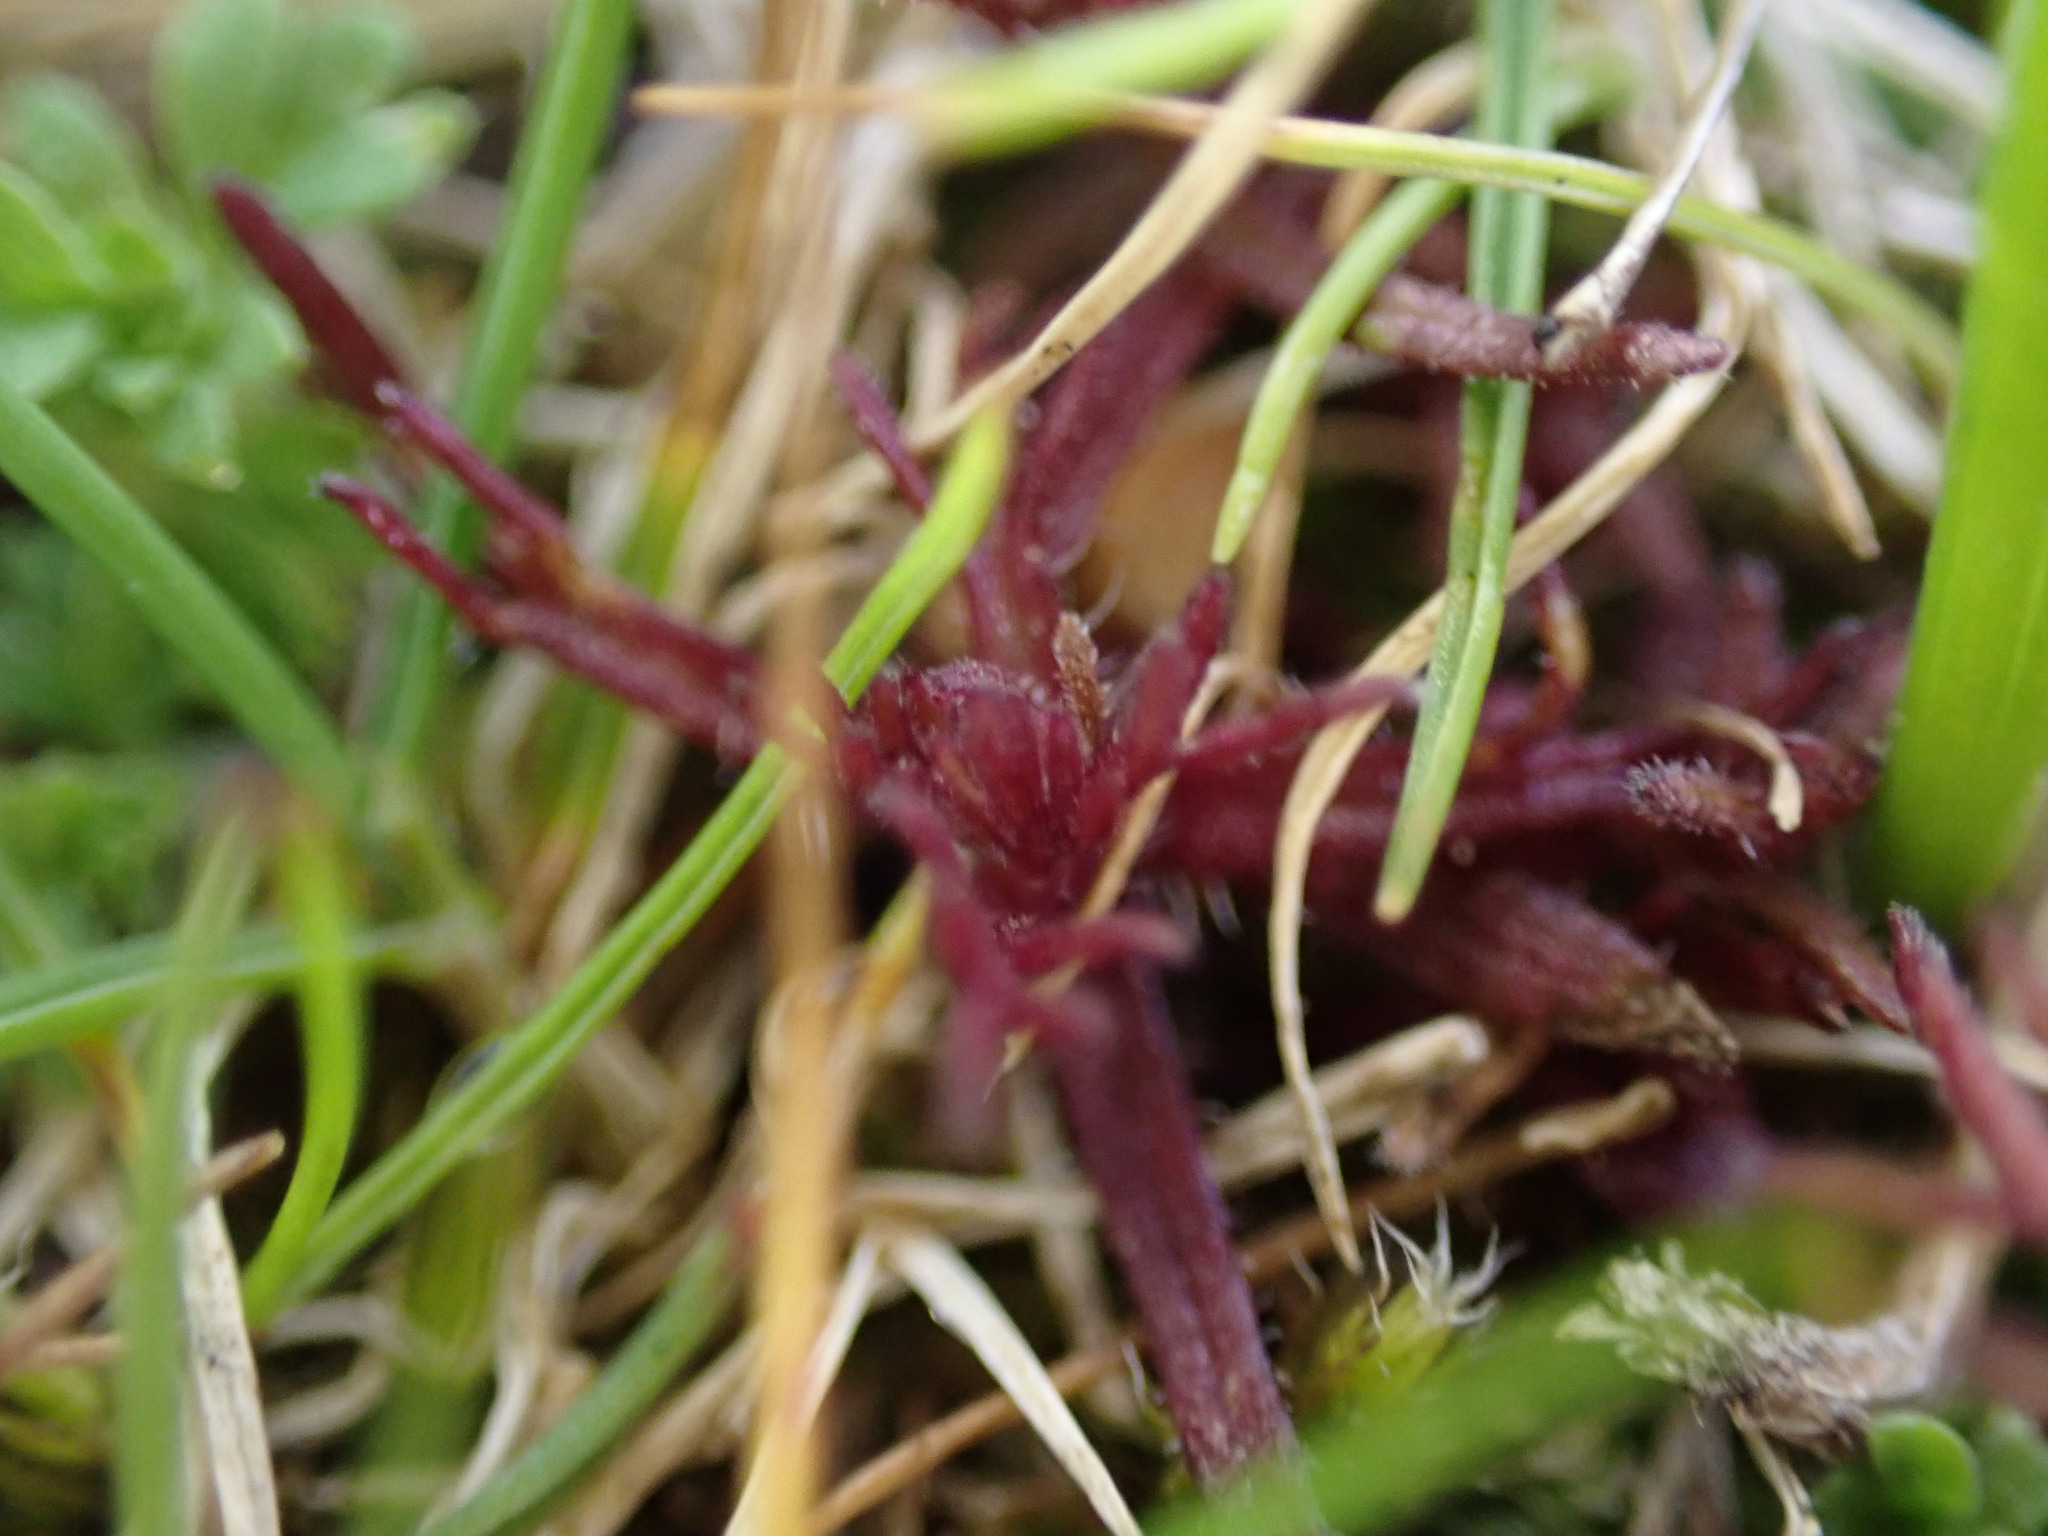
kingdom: Plantae
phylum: Tracheophyta
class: Magnoliopsida
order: Lamiales
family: Orobanchaceae
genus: Triphysaria
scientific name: Triphysaria pusilla
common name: Dwarf false owl-clover
